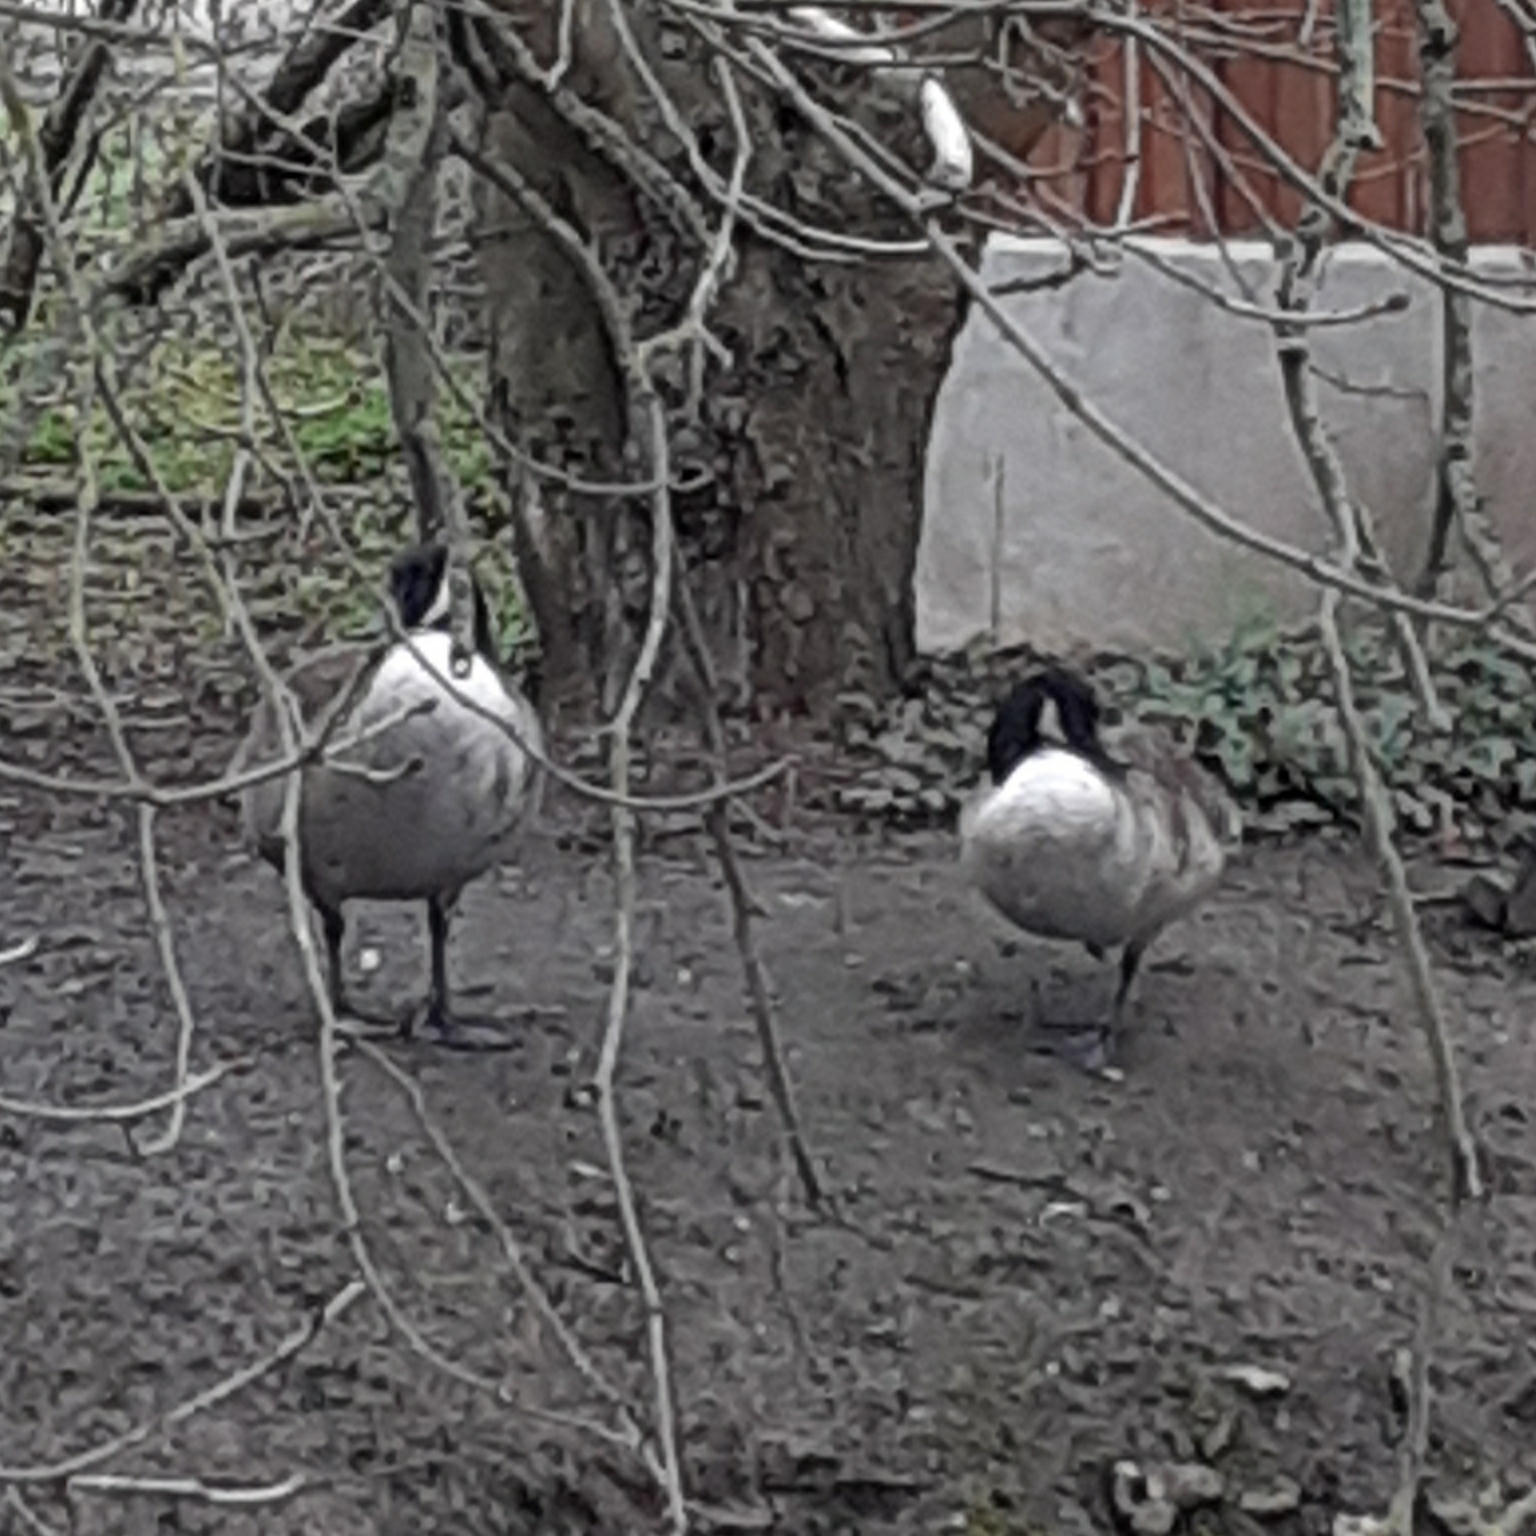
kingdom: Animalia
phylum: Chordata
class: Aves
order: Anseriformes
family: Anatidae
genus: Branta
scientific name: Branta canadensis
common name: Canada goose
